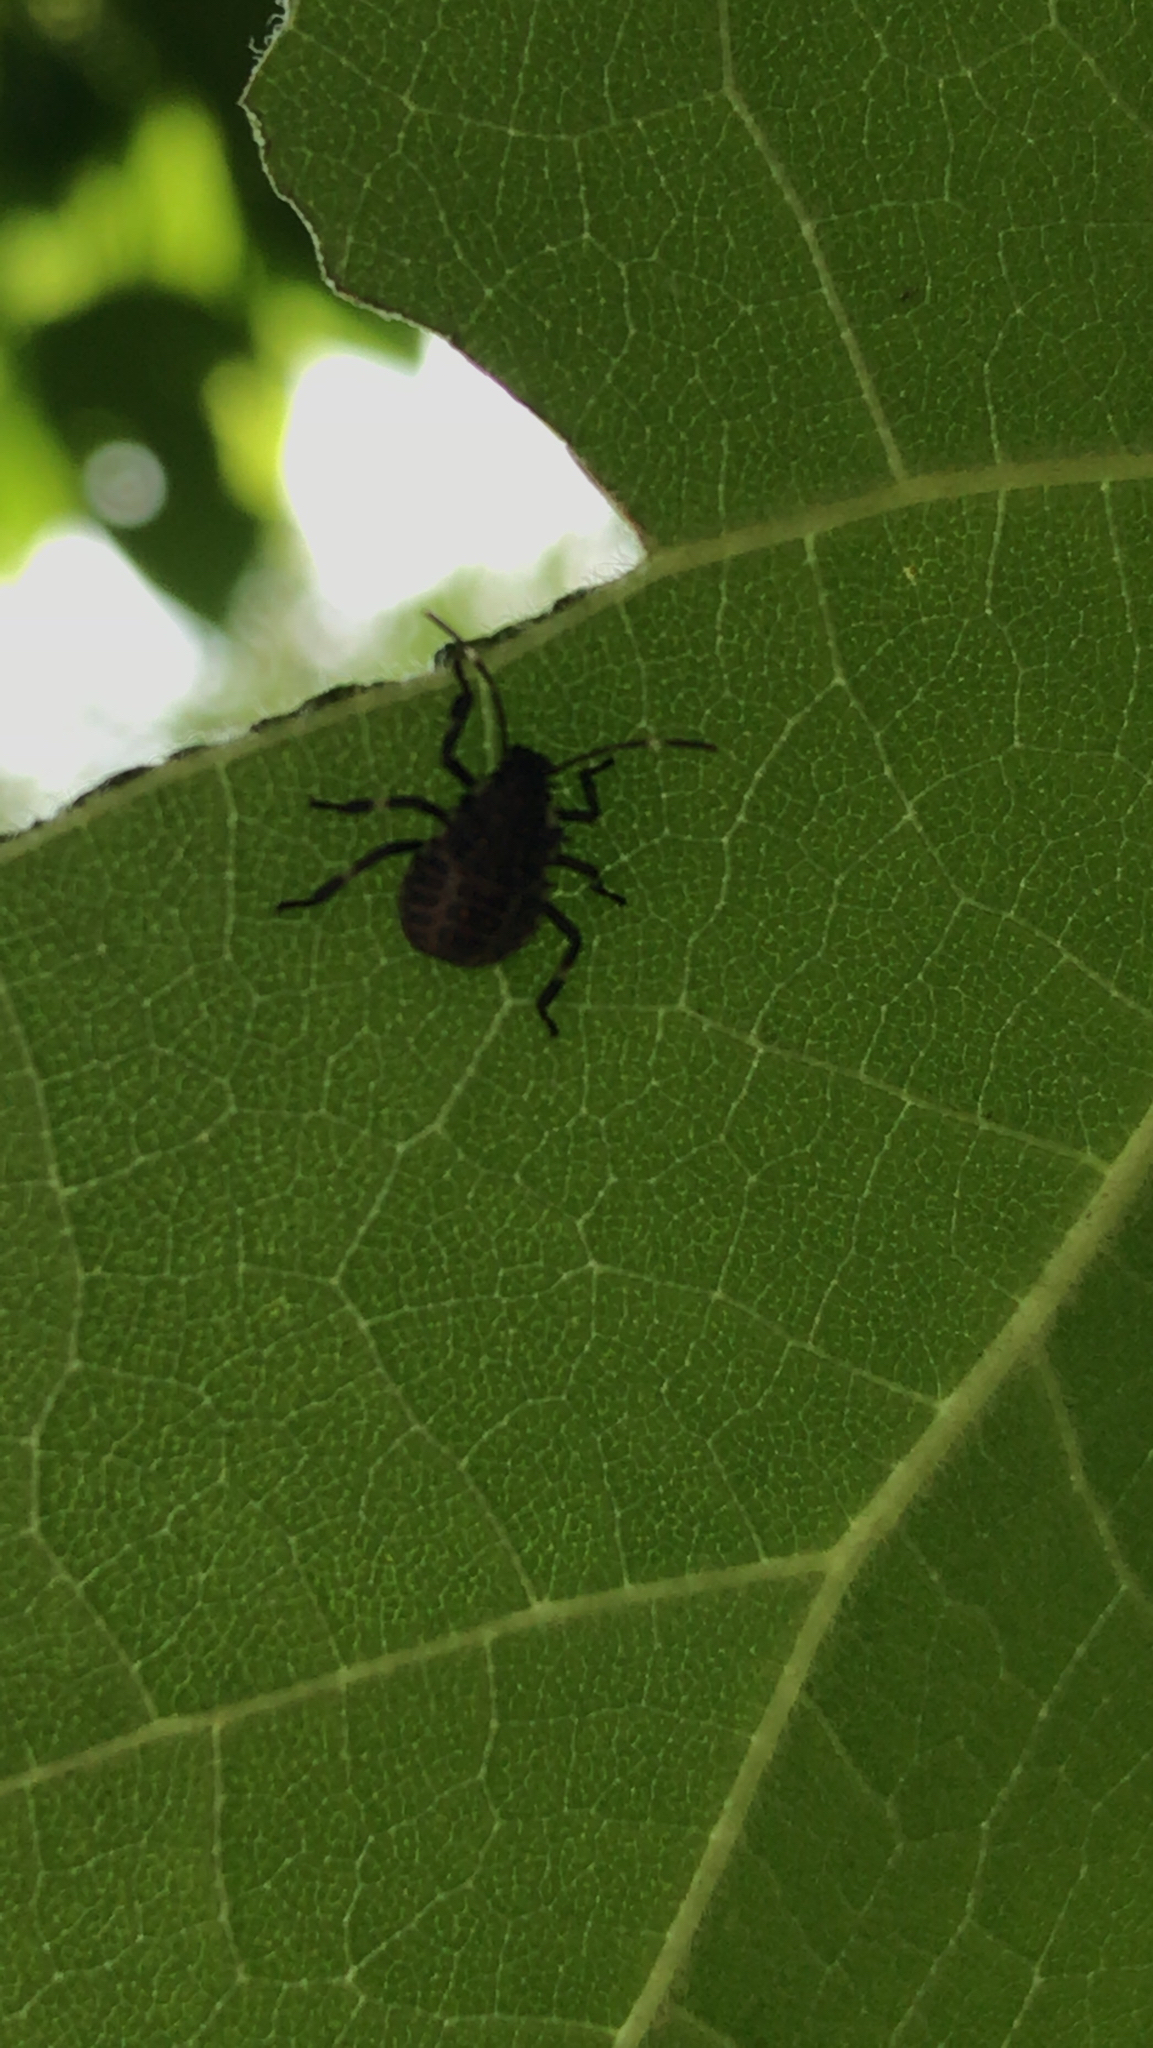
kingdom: Animalia
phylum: Arthropoda
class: Insecta
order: Hemiptera
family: Pentatomidae
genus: Halyomorpha
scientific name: Halyomorpha halys
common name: Brown marmorated stink bug
